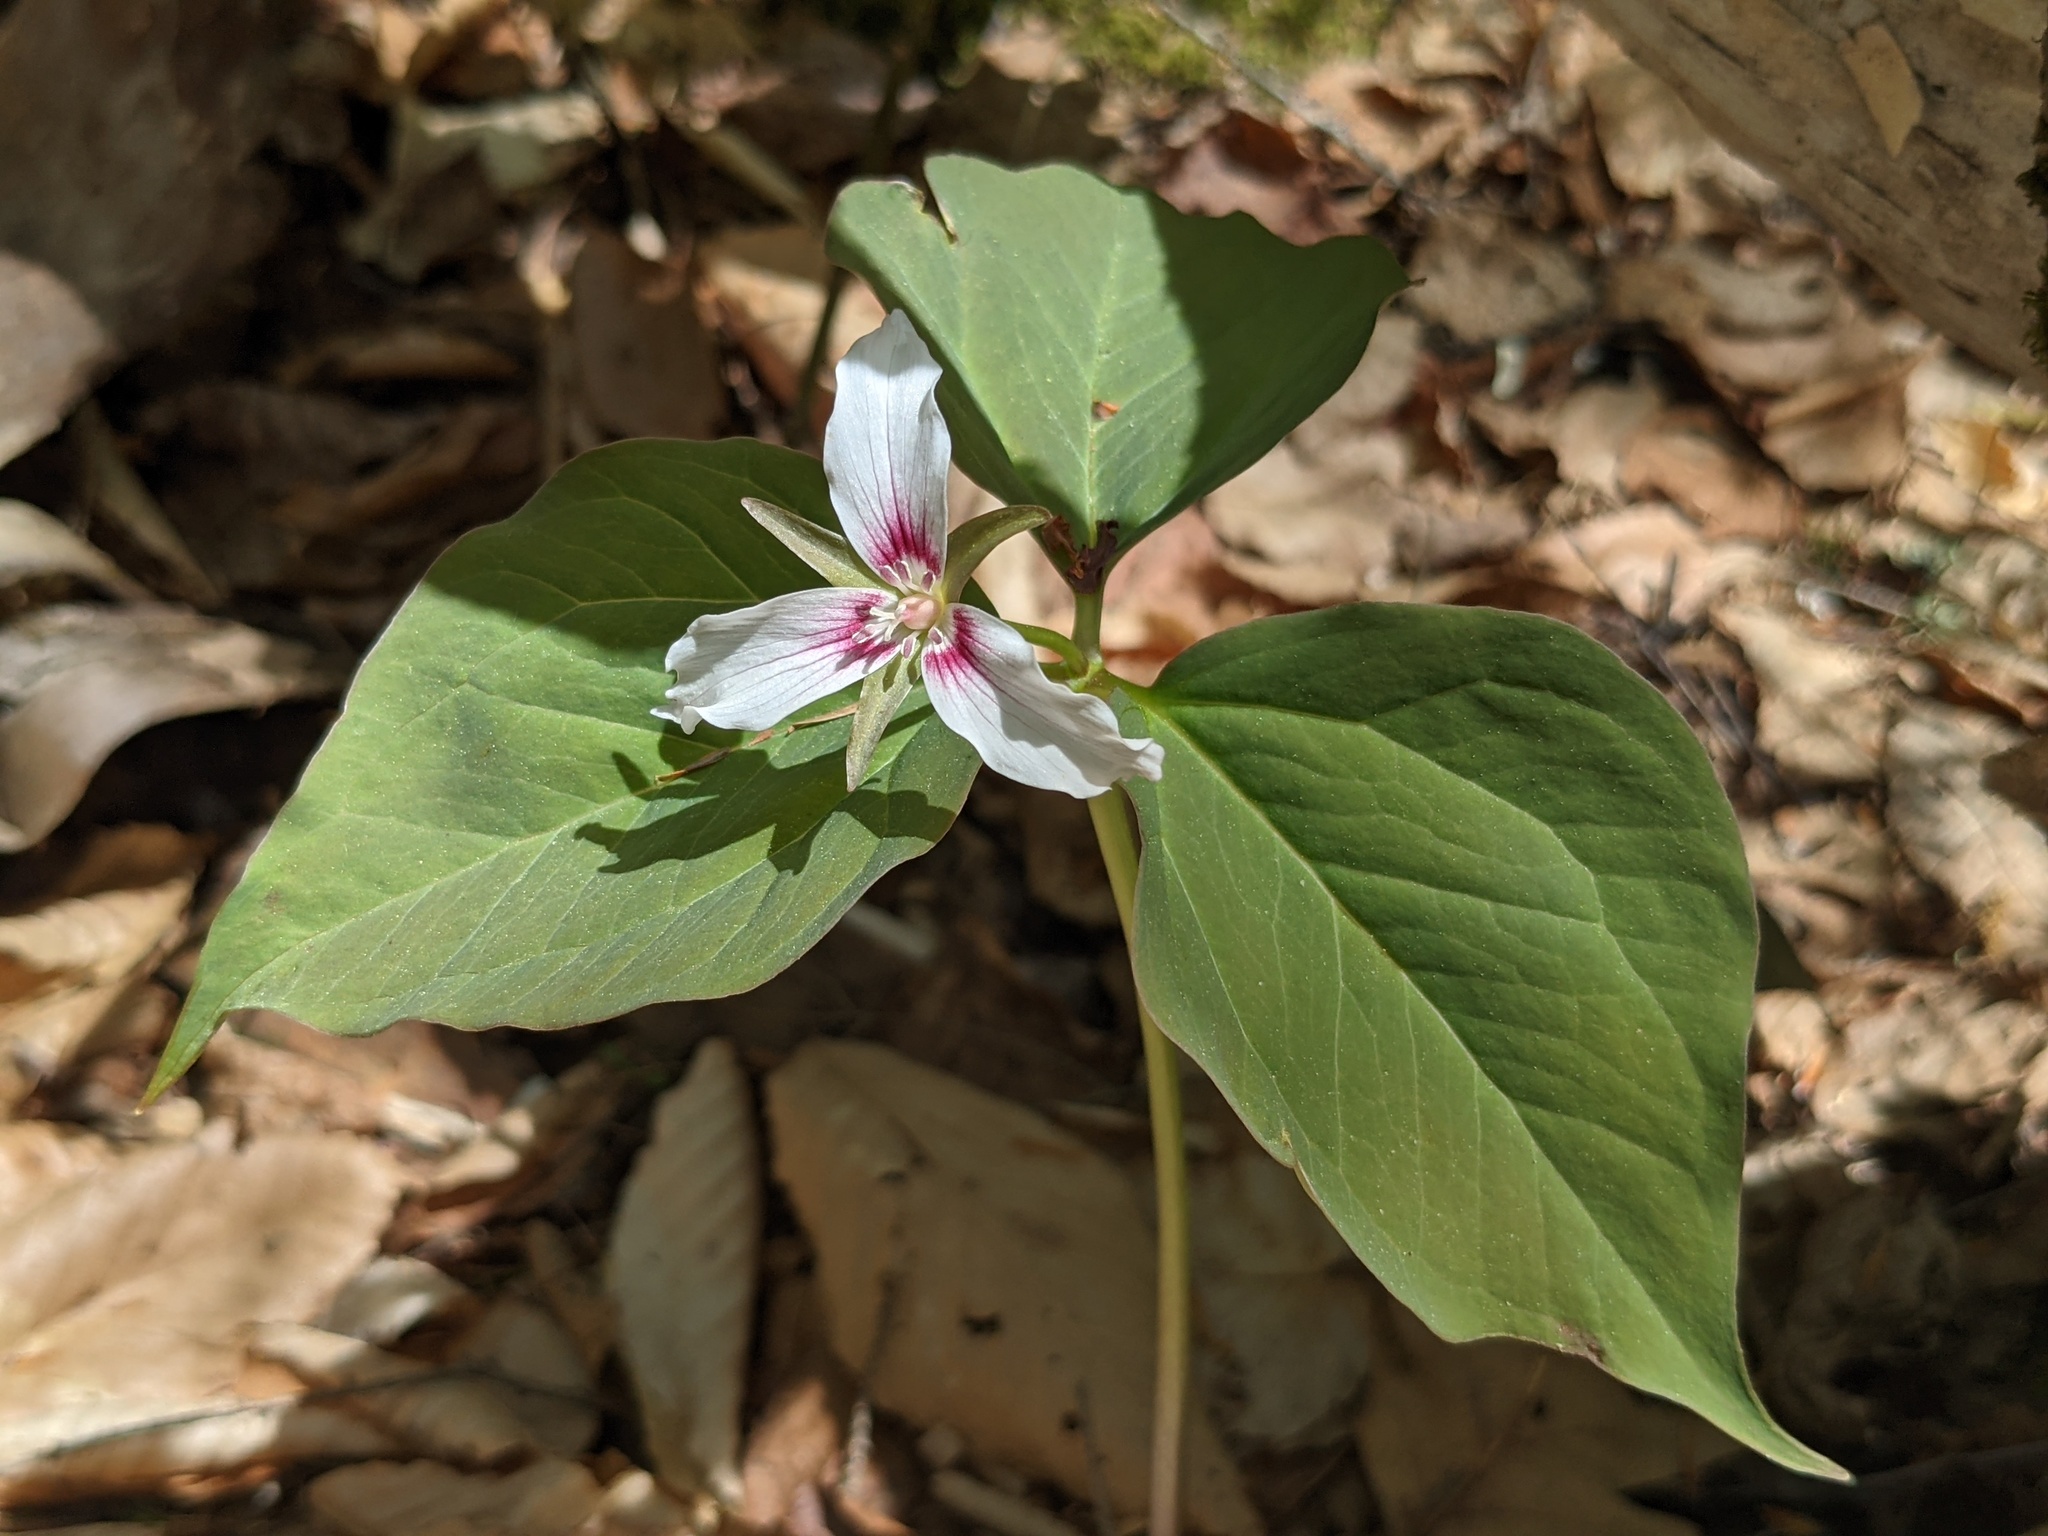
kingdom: Plantae
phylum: Tracheophyta
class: Liliopsida
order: Liliales
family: Melanthiaceae
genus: Trillium
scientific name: Trillium undulatum
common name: Paint trillium
